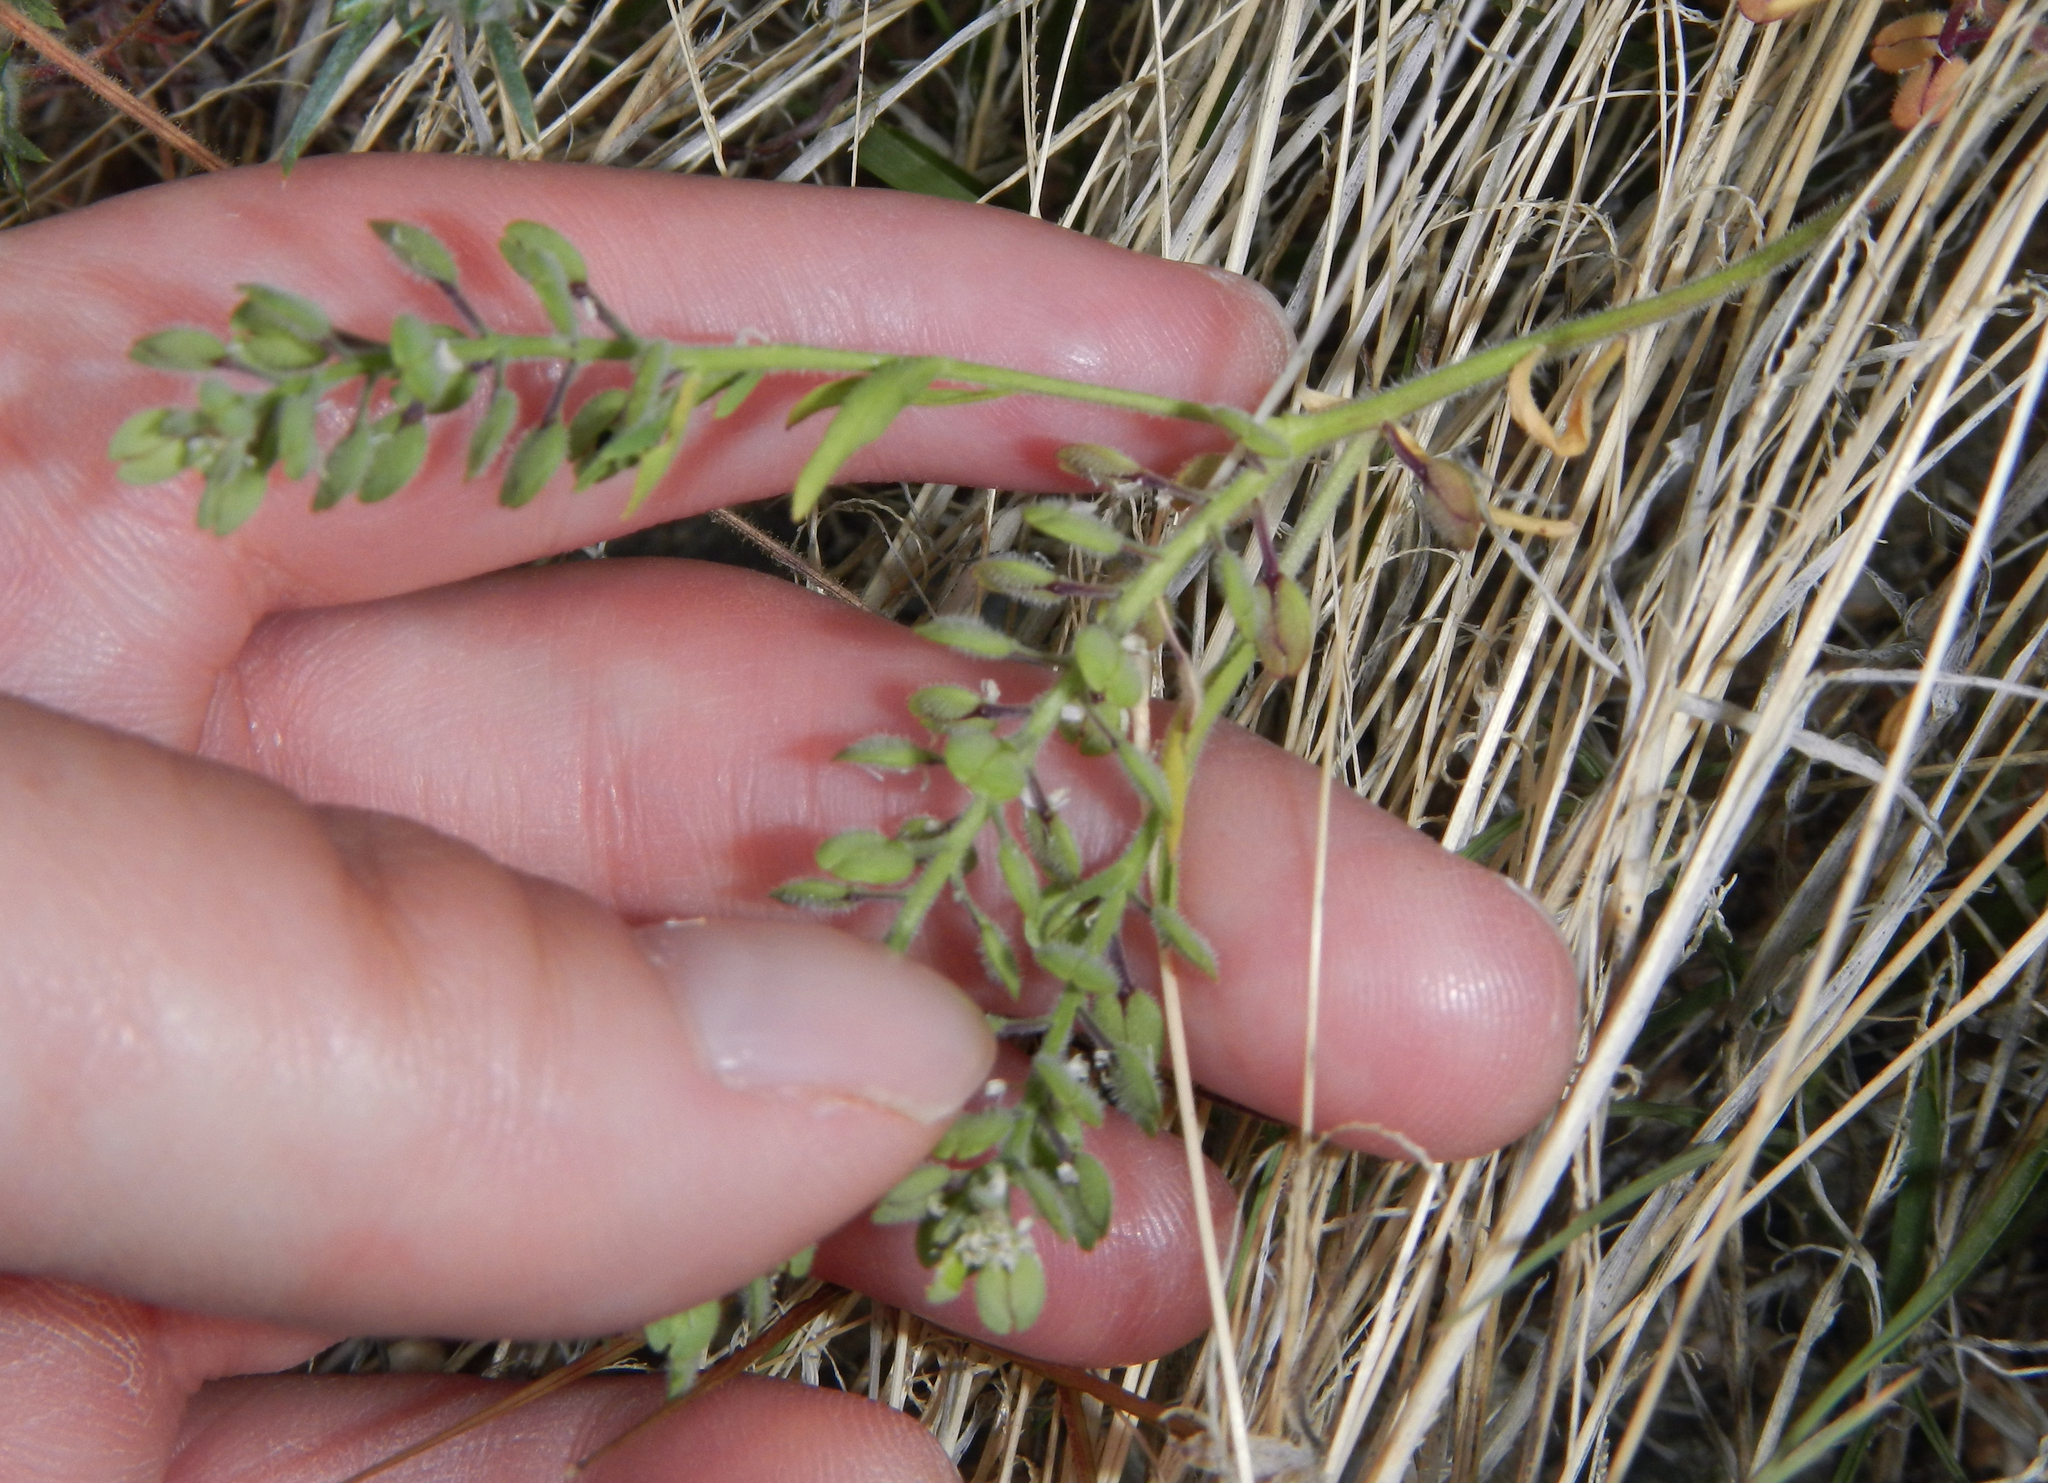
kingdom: Plantae
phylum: Tracheophyta
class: Magnoliopsida
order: Brassicales
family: Brassicaceae
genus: Lepidium
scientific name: Lepidium lasiocarpum
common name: Hairy-pod pepperwort
